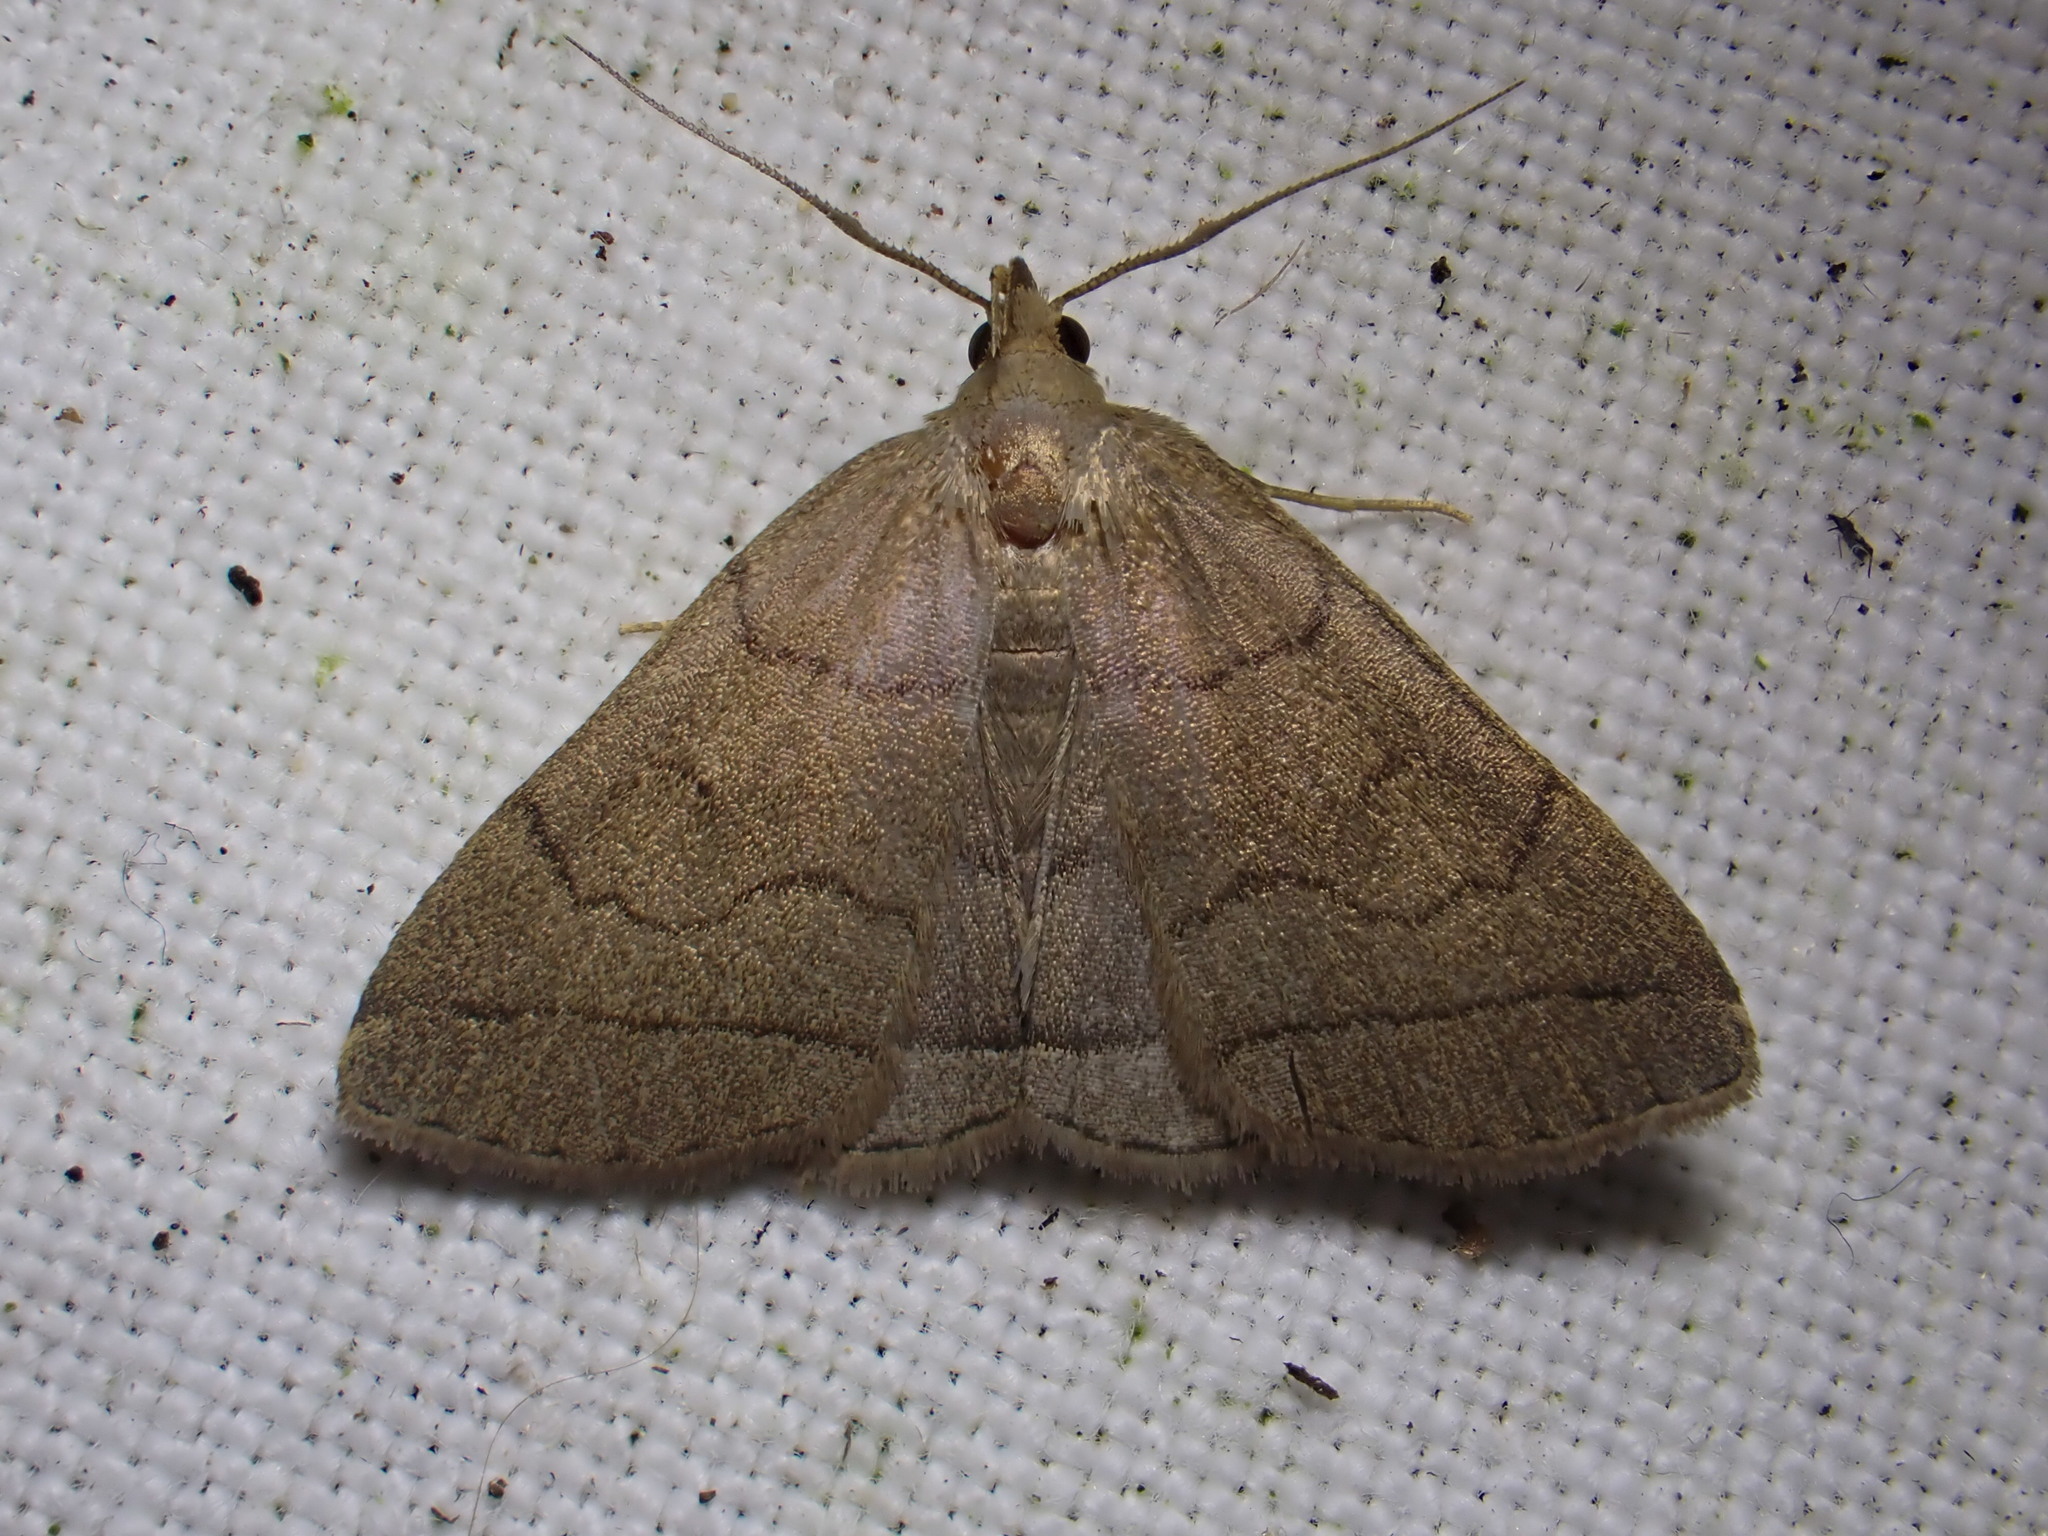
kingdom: Animalia
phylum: Arthropoda
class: Insecta
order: Lepidoptera
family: Erebidae
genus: Herminia
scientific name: Herminia tarsipennalis
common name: Fan-foot
